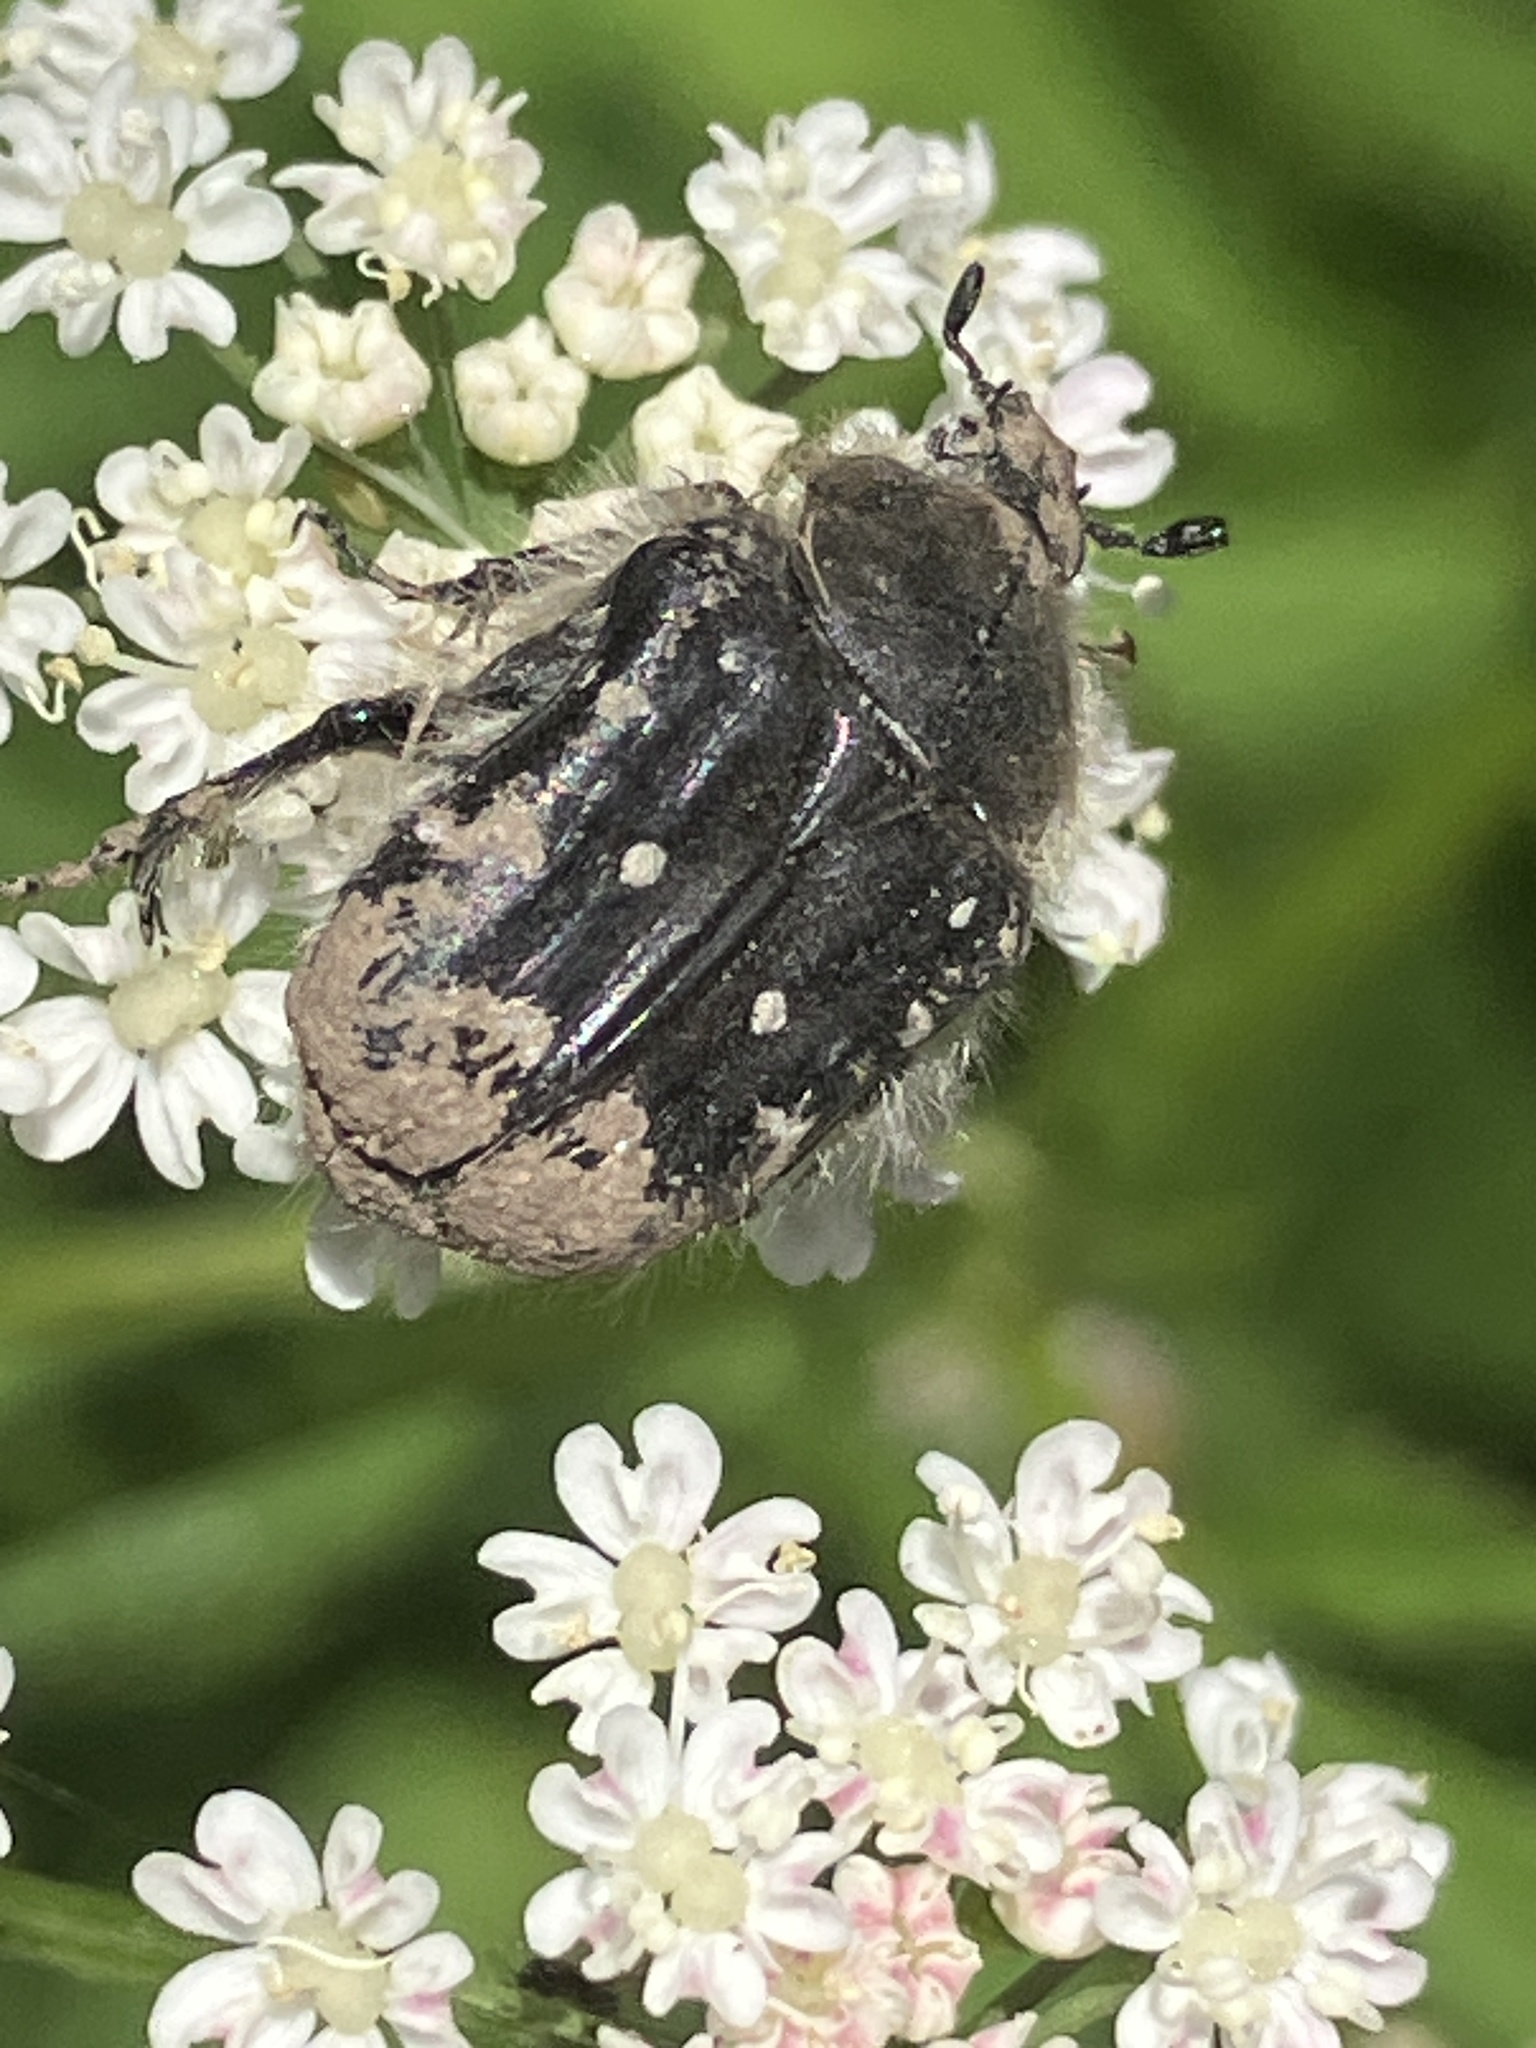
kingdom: Animalia
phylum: Arthropoda
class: Insecta
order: Coleoptera
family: Scarabaeidae
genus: Tropinota
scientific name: Tropinota hirta
